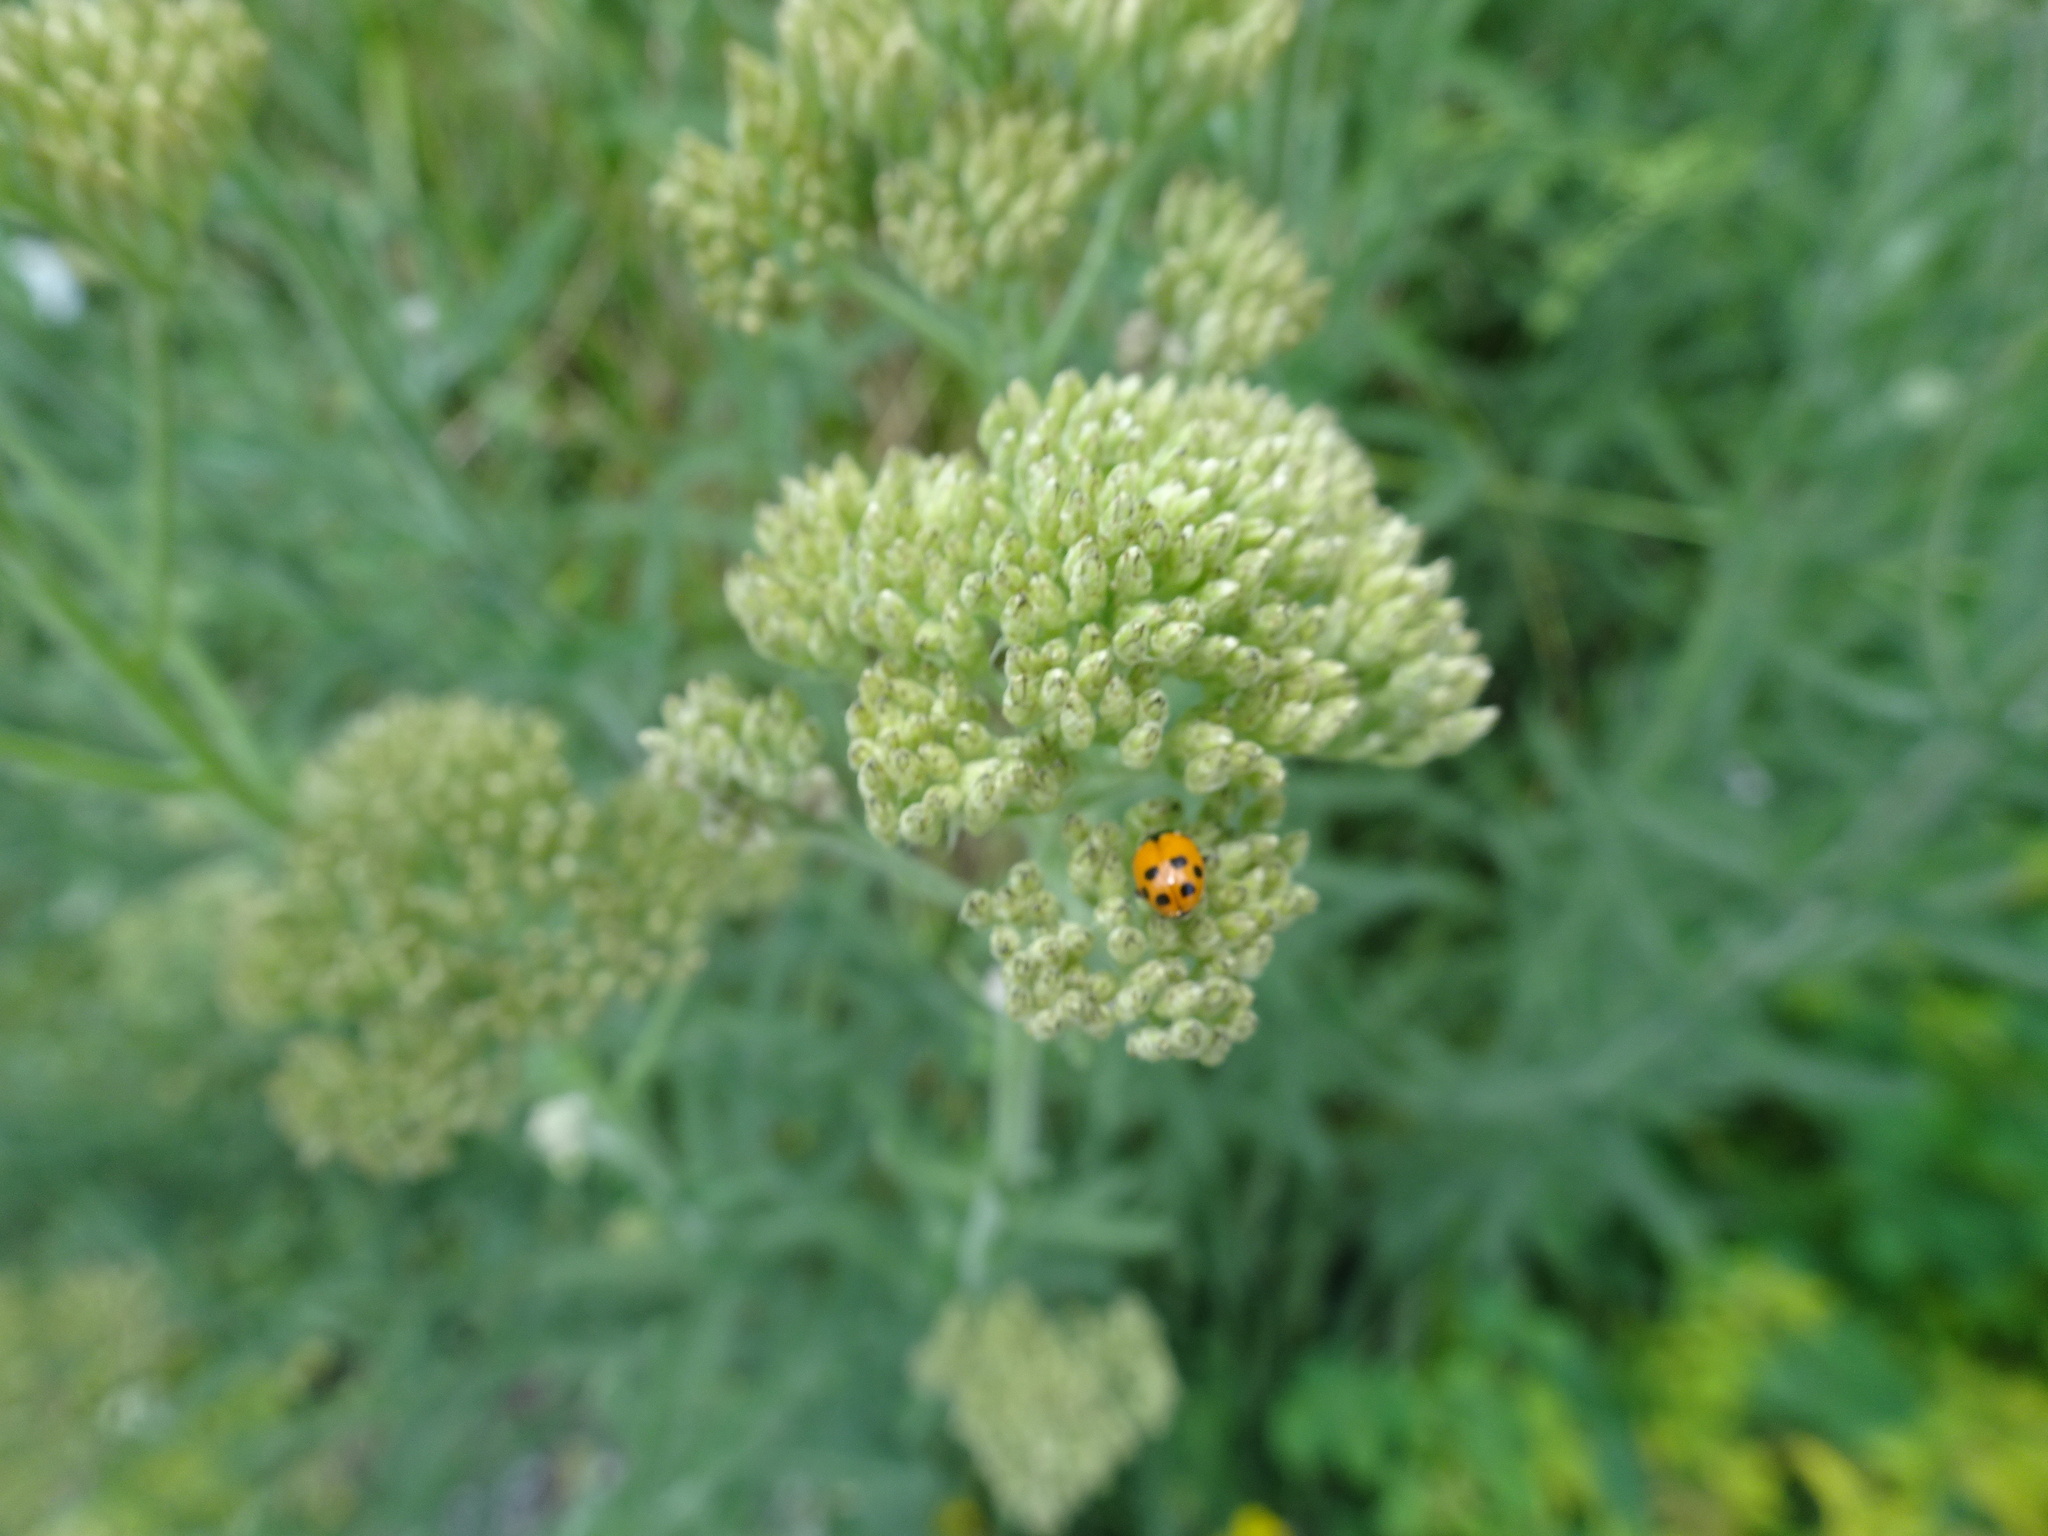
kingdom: Animalia
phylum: Arthropoda
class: Insecta
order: Coleoptera
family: Coccinellidae
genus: Hippodamia
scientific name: Hippodamia variegata
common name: Ladybird beetle
